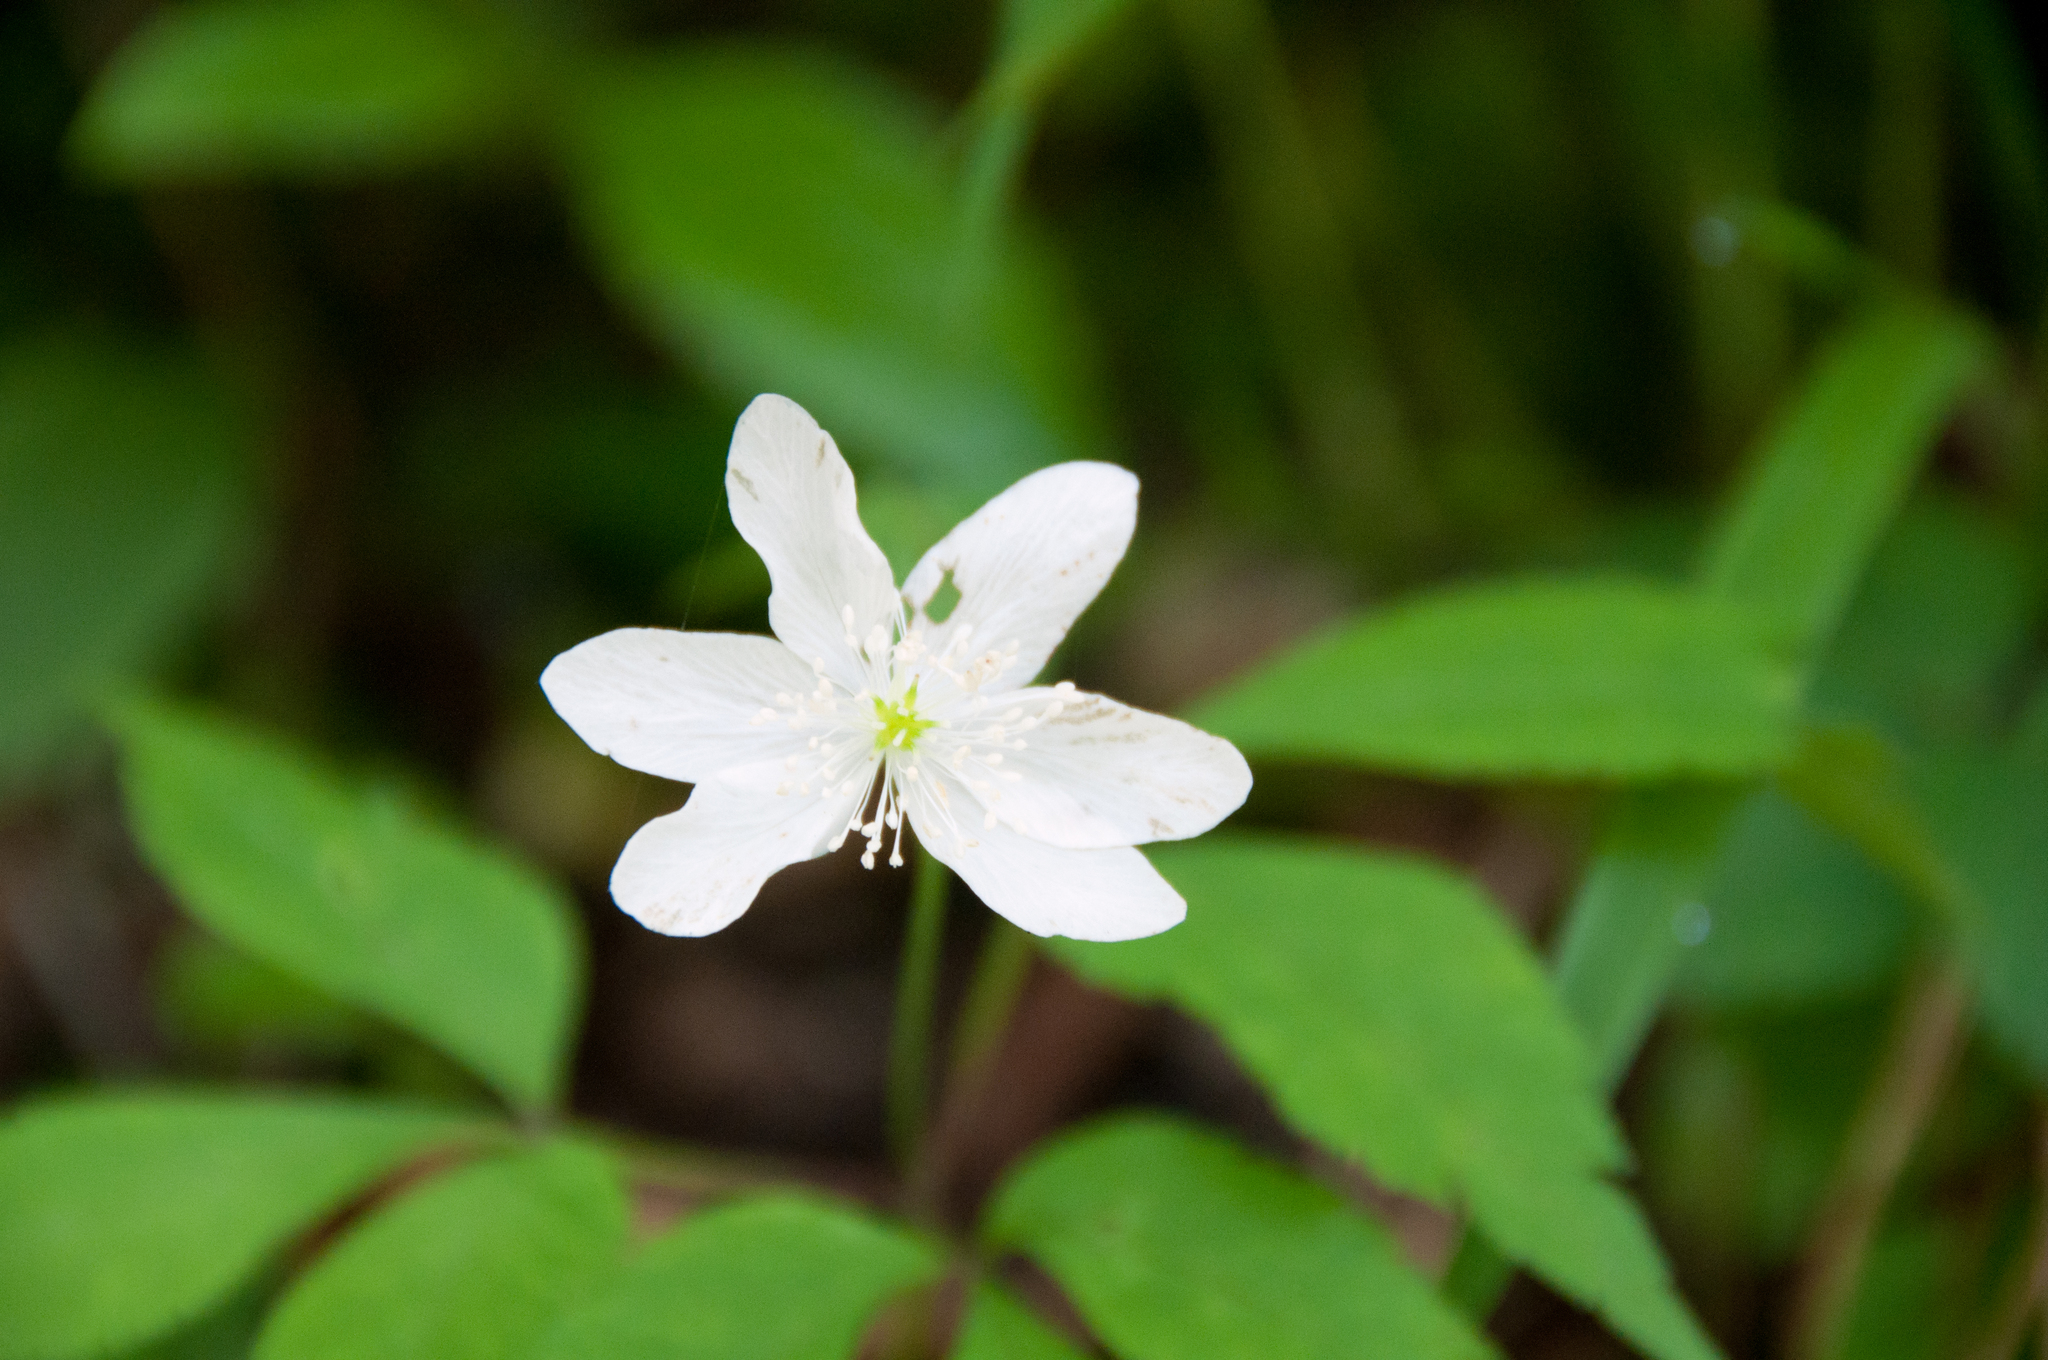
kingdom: Plantae
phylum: Tracheophyta
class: Magnoliopsida
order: Ranunculales
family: Ranunculaceae
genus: Anemone
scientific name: Anemone trifolia
